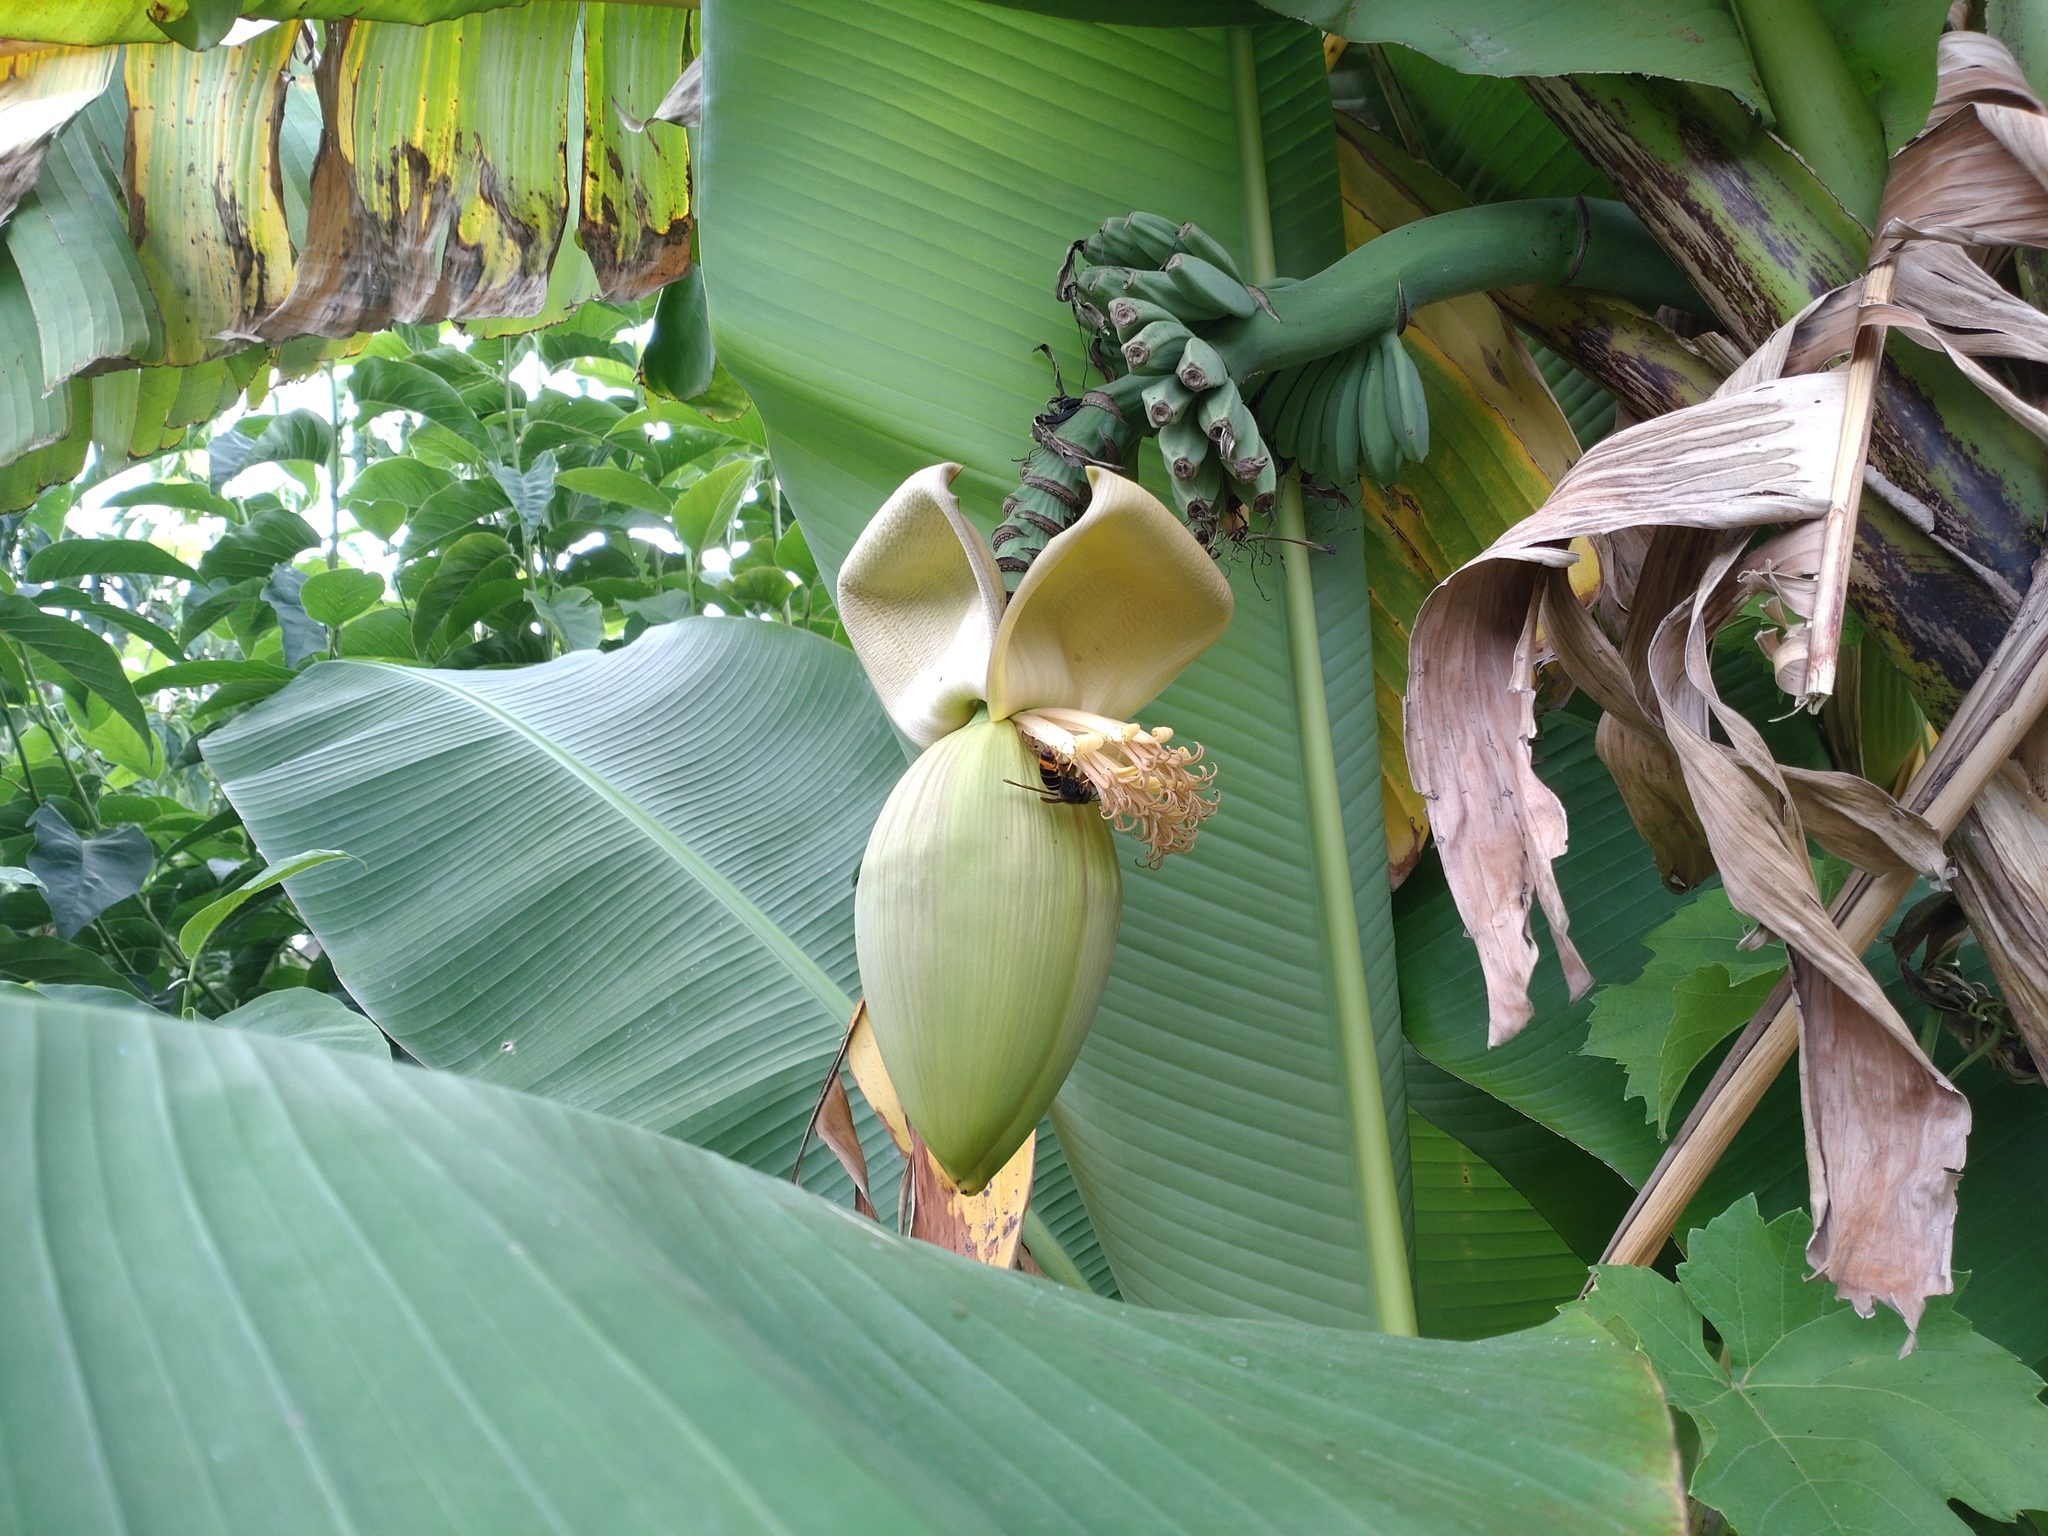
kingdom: Animalia
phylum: Arthropoda
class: Insecta
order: Hymenoptera
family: Vespidae
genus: Vespa
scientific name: Vespa velutina
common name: Asian hornet
